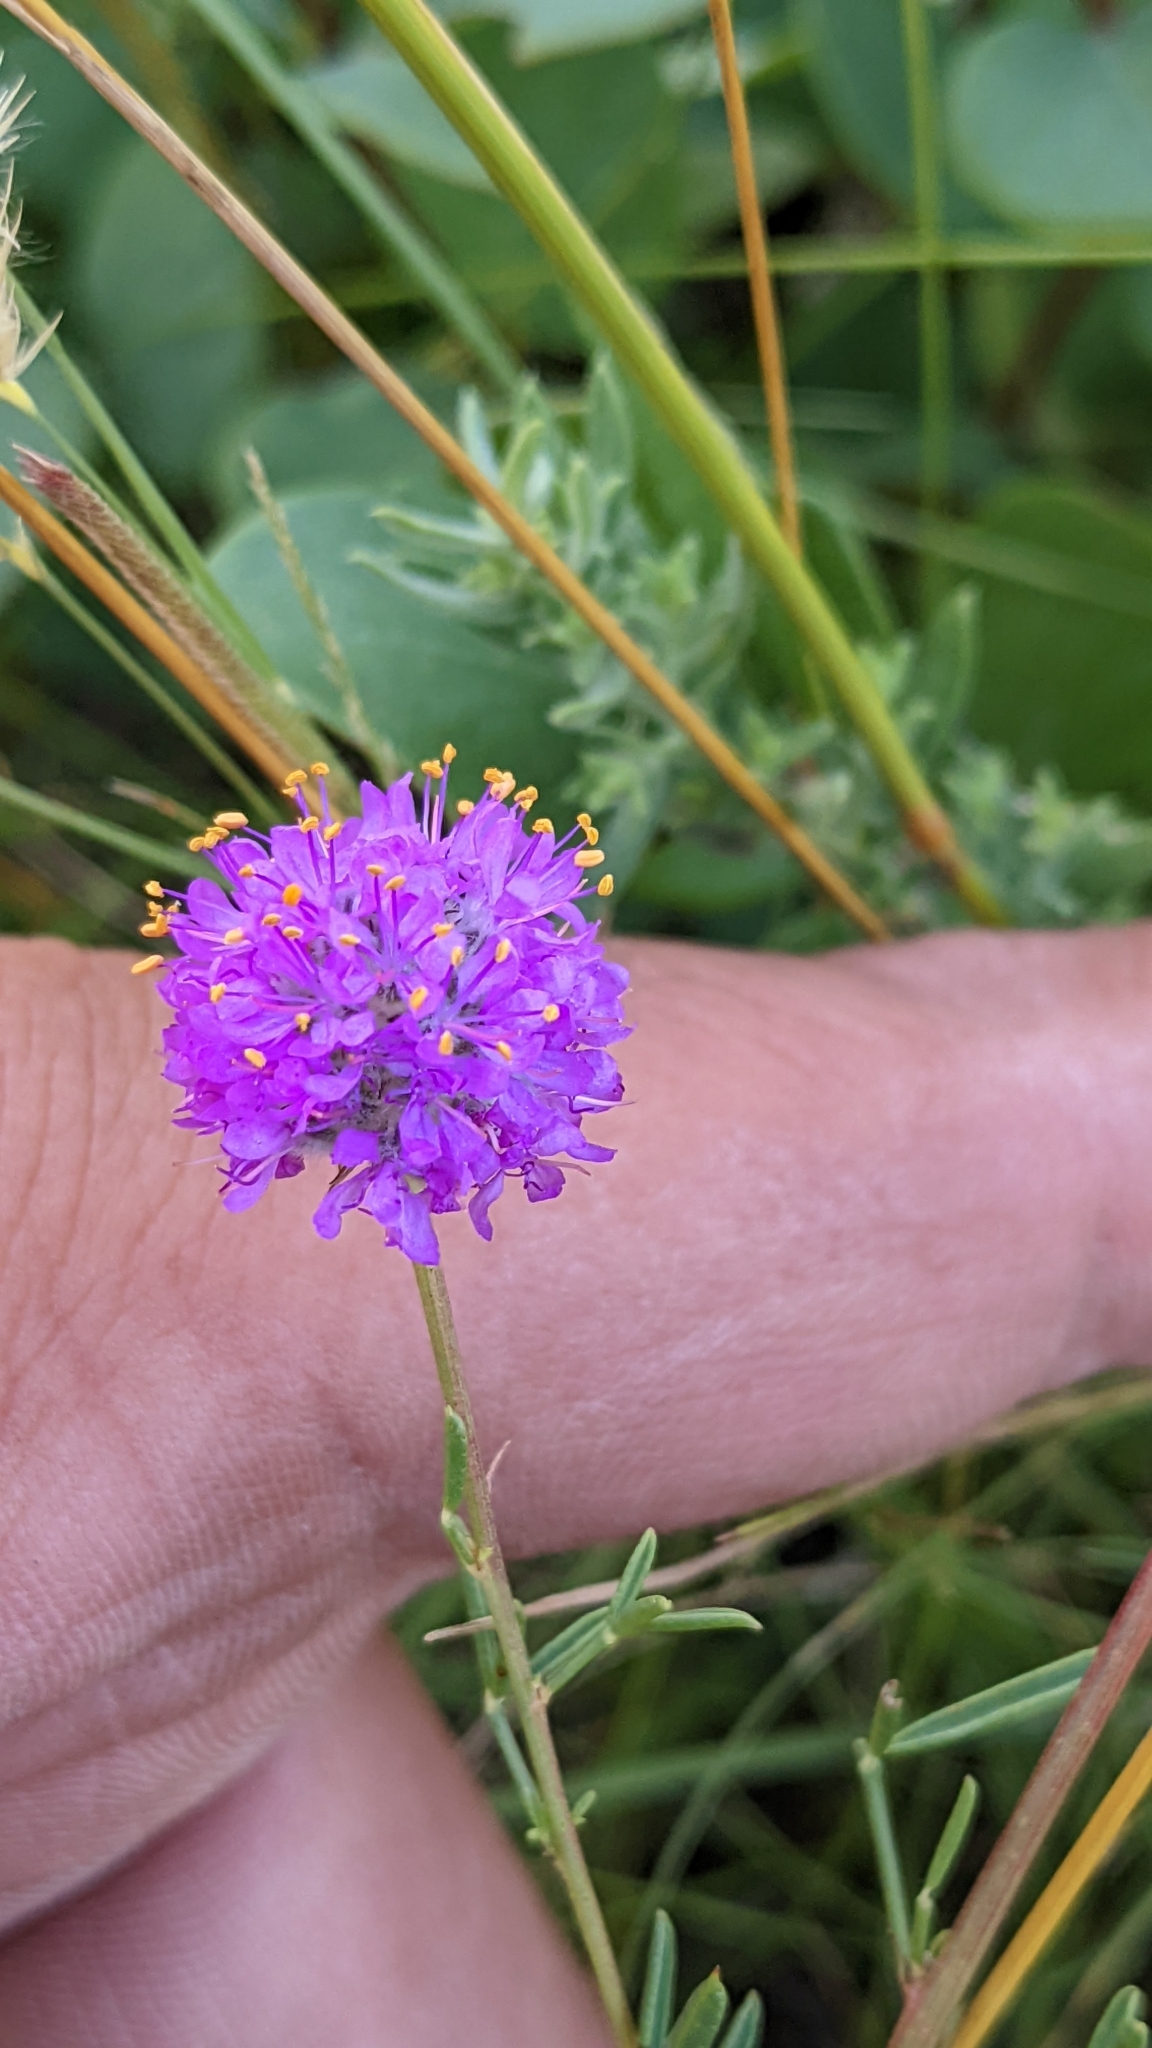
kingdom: Plantae
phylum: Tracheophyta
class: Magnoliopsida
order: Fabales
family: Fabaceae
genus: Dalea
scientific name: Dalea purpurea
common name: Purple prairie-clover
